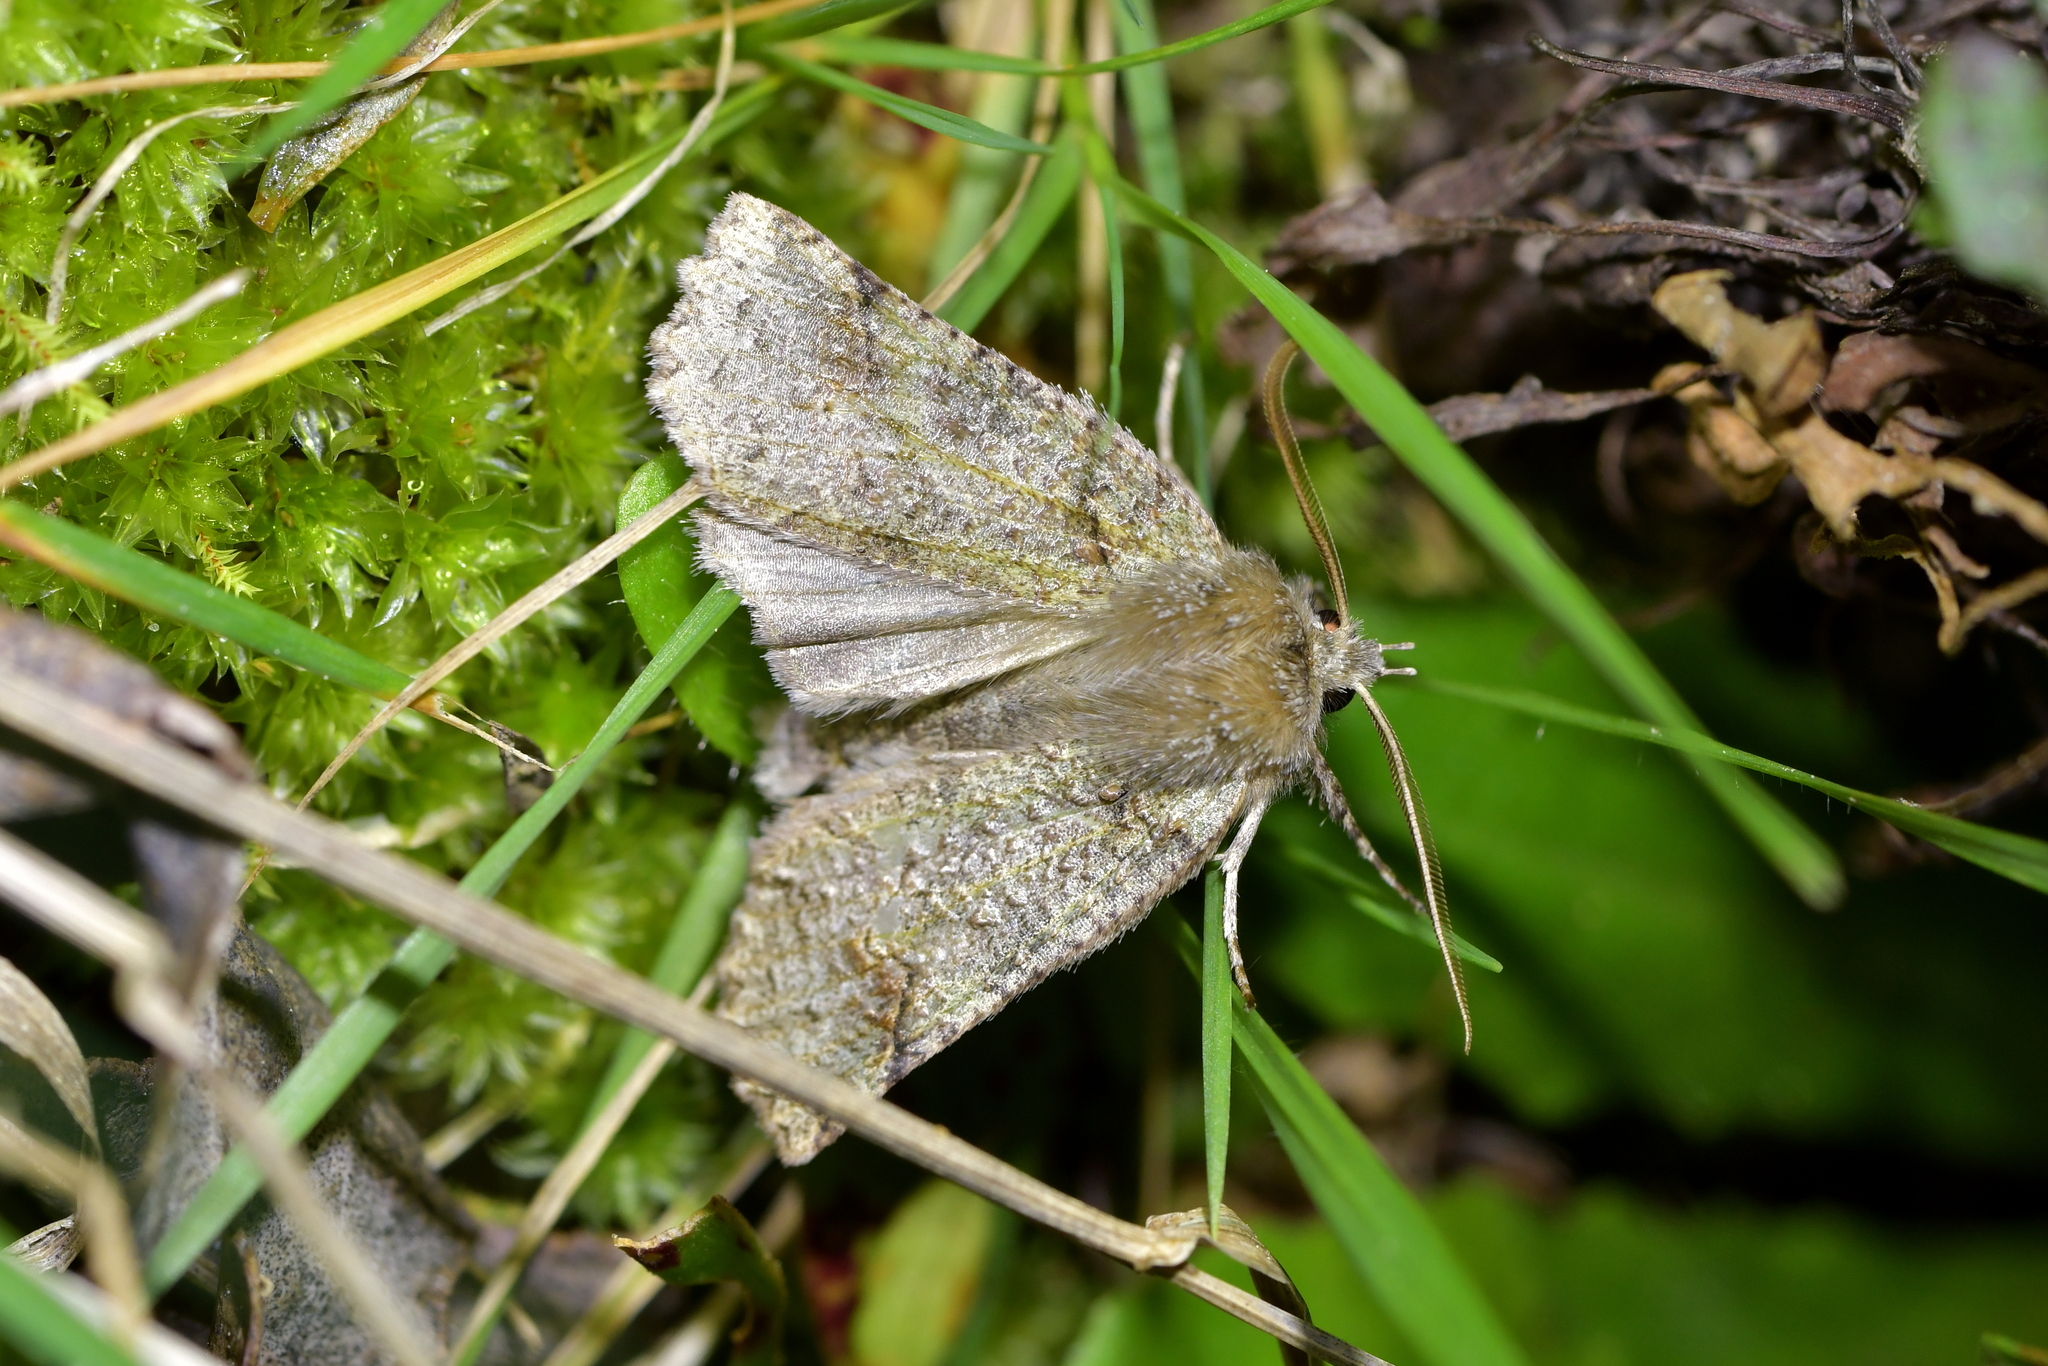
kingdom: Animalia
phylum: Arthropoda
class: Insecta
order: Lepidoptera
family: Geometridae
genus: Declana
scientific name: Declana floccosa
